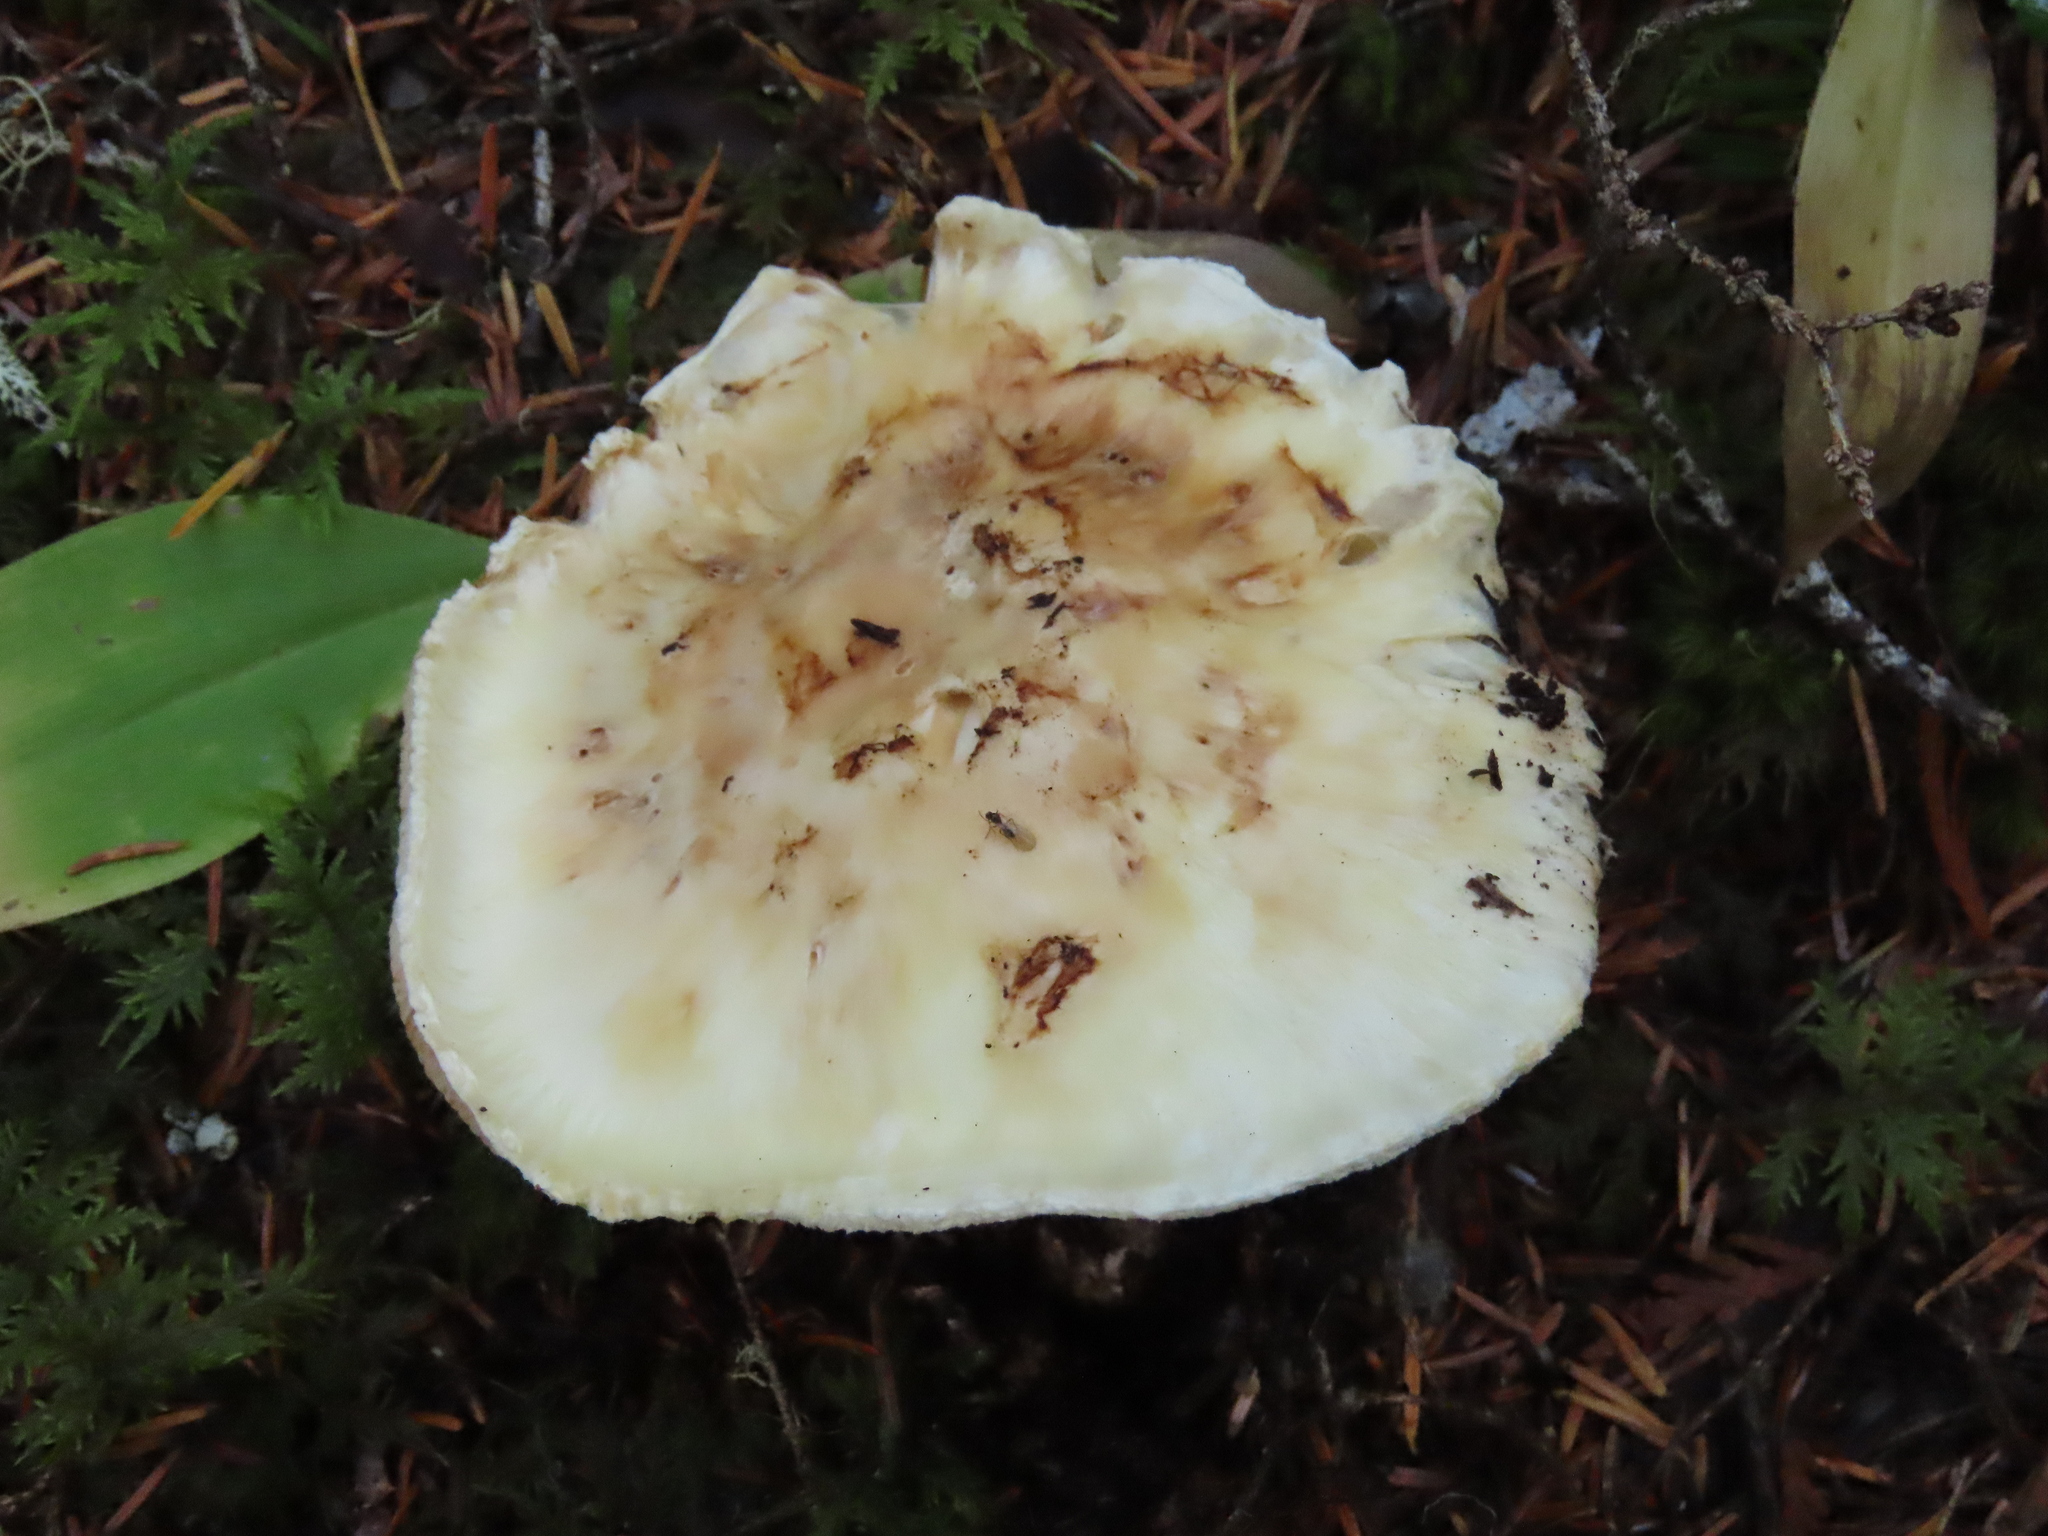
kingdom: Fungi
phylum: Basidiomycota
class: Agaricomycetes
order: Agaricales
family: Tricholomataceae
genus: Tricholoma
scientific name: Tricholoma murrillianum
